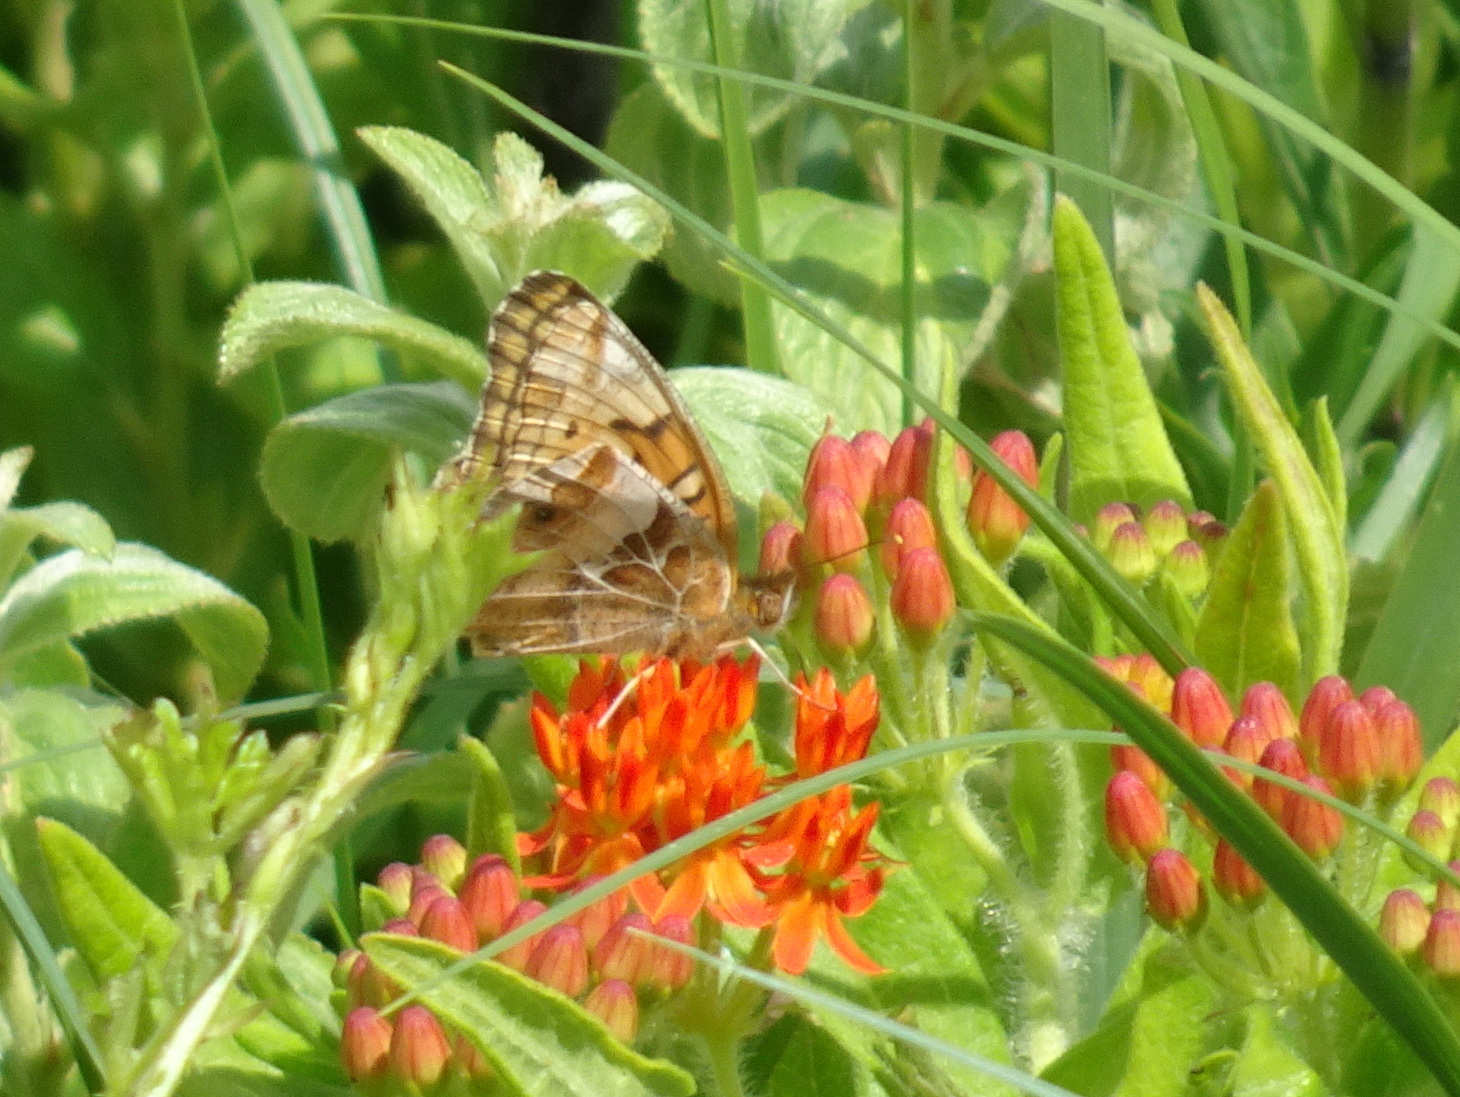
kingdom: Animalia
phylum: Arthropoda
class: Insecta
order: Lepidoptera
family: Nymphalidae
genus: Euptoieta
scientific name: Euptoieta claudia
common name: Variegated fritillary
